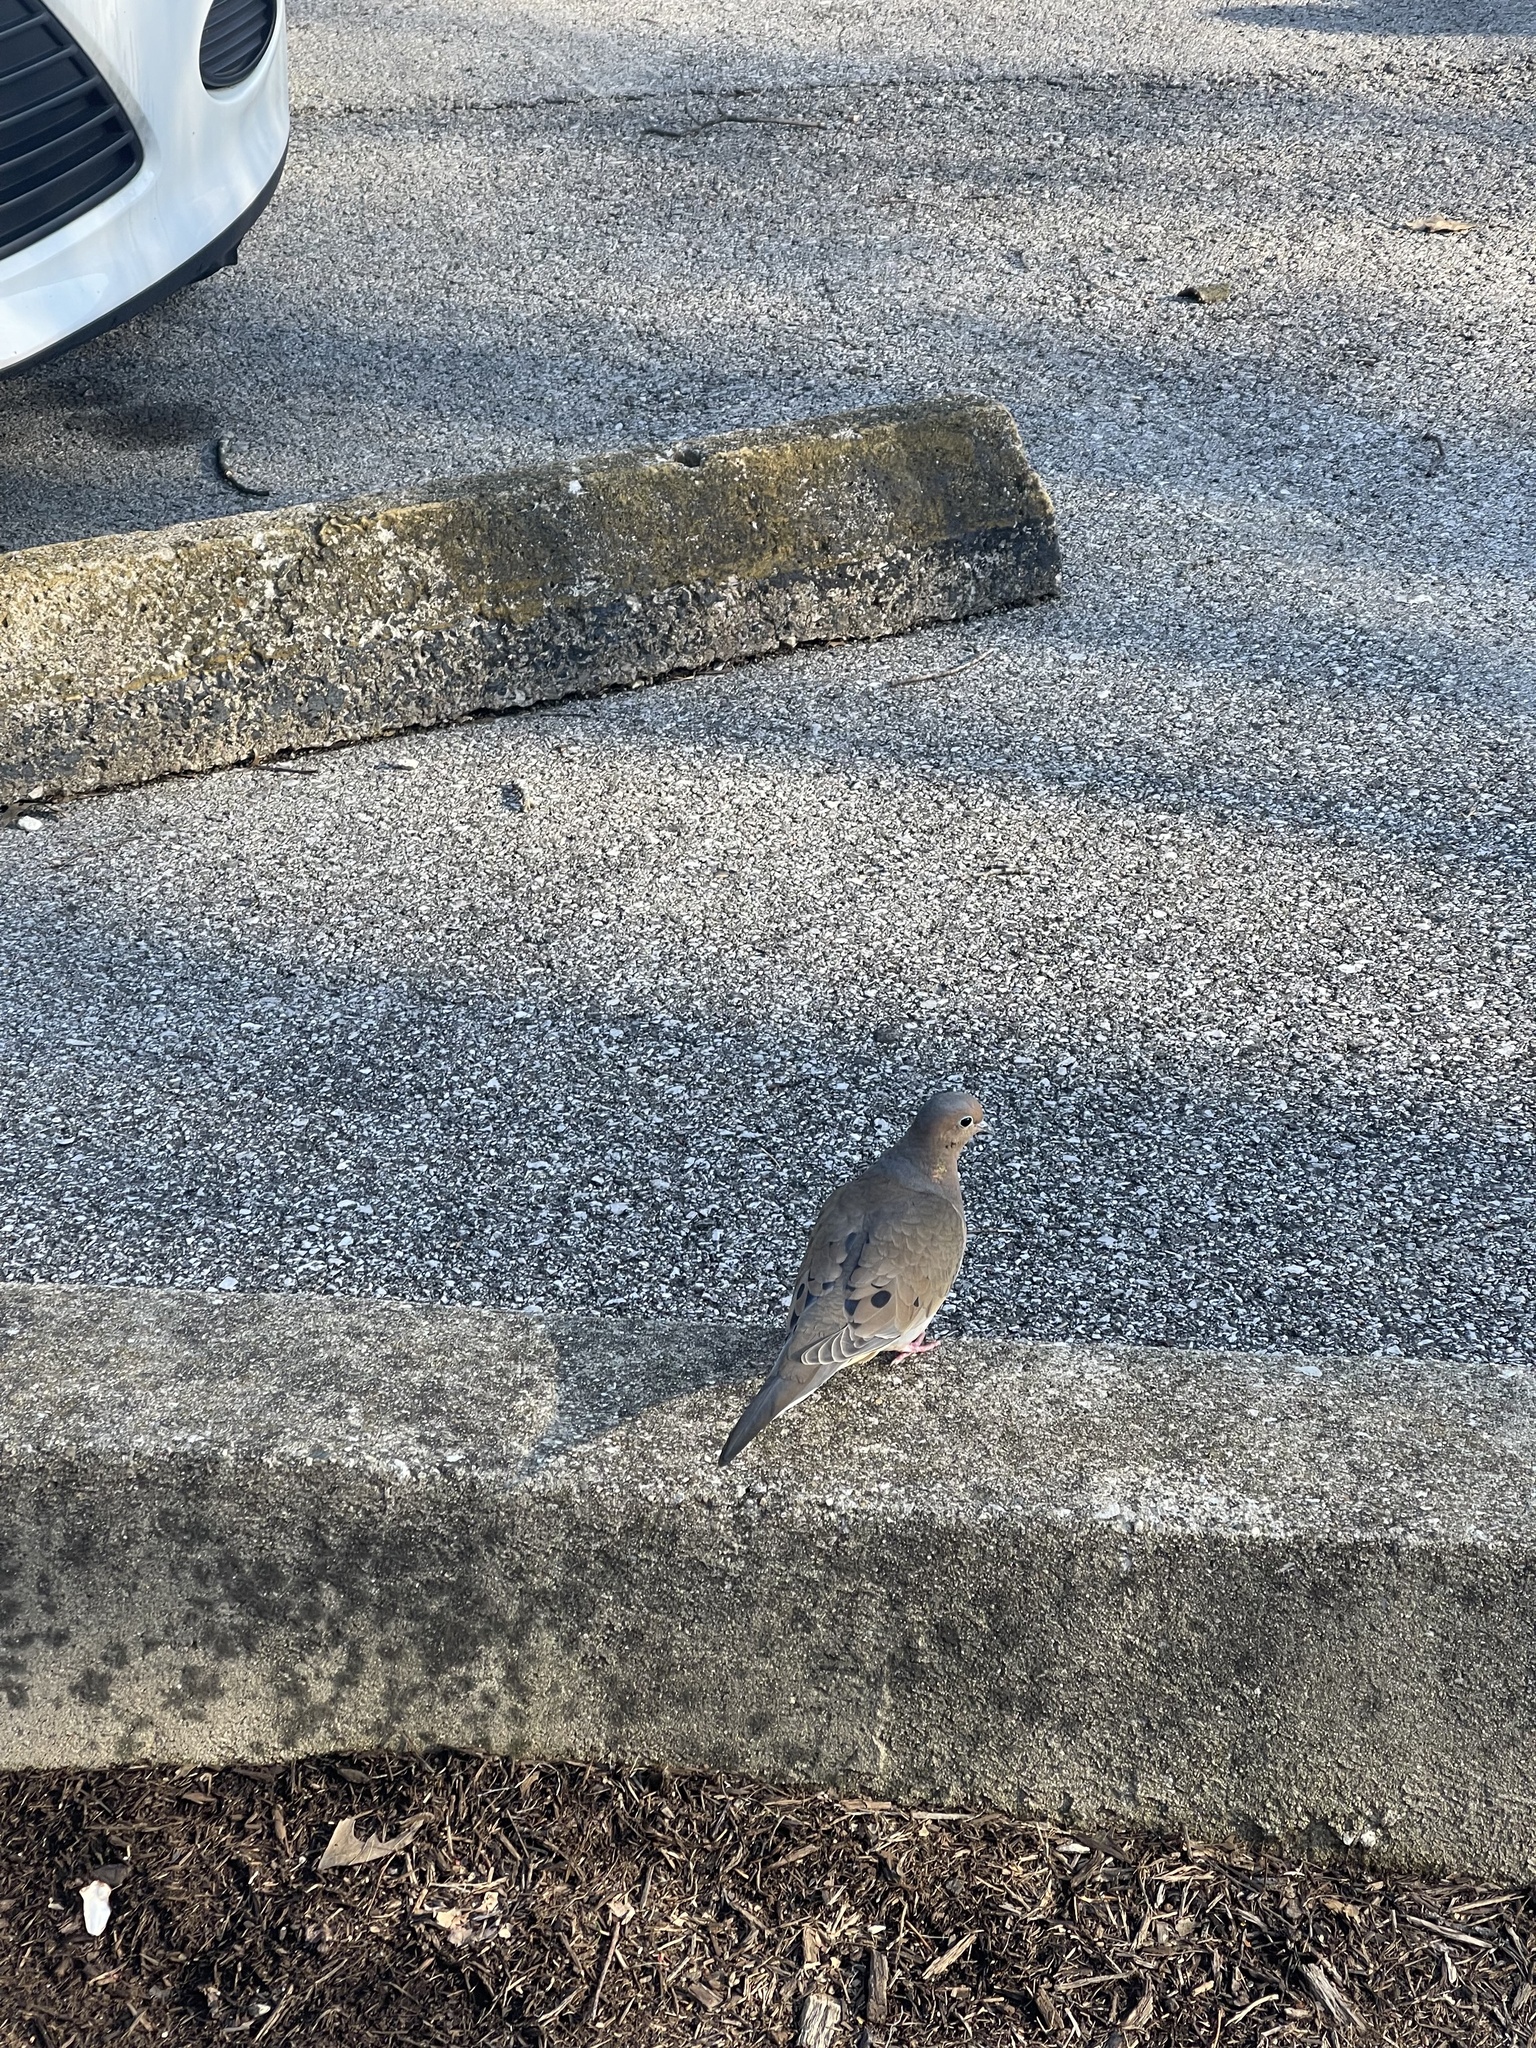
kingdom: Animalia
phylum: Chordata
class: Aves
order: Columbiformes
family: Columbidae
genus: Zenaida
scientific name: Zenaida macroura
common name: Mourning dove
